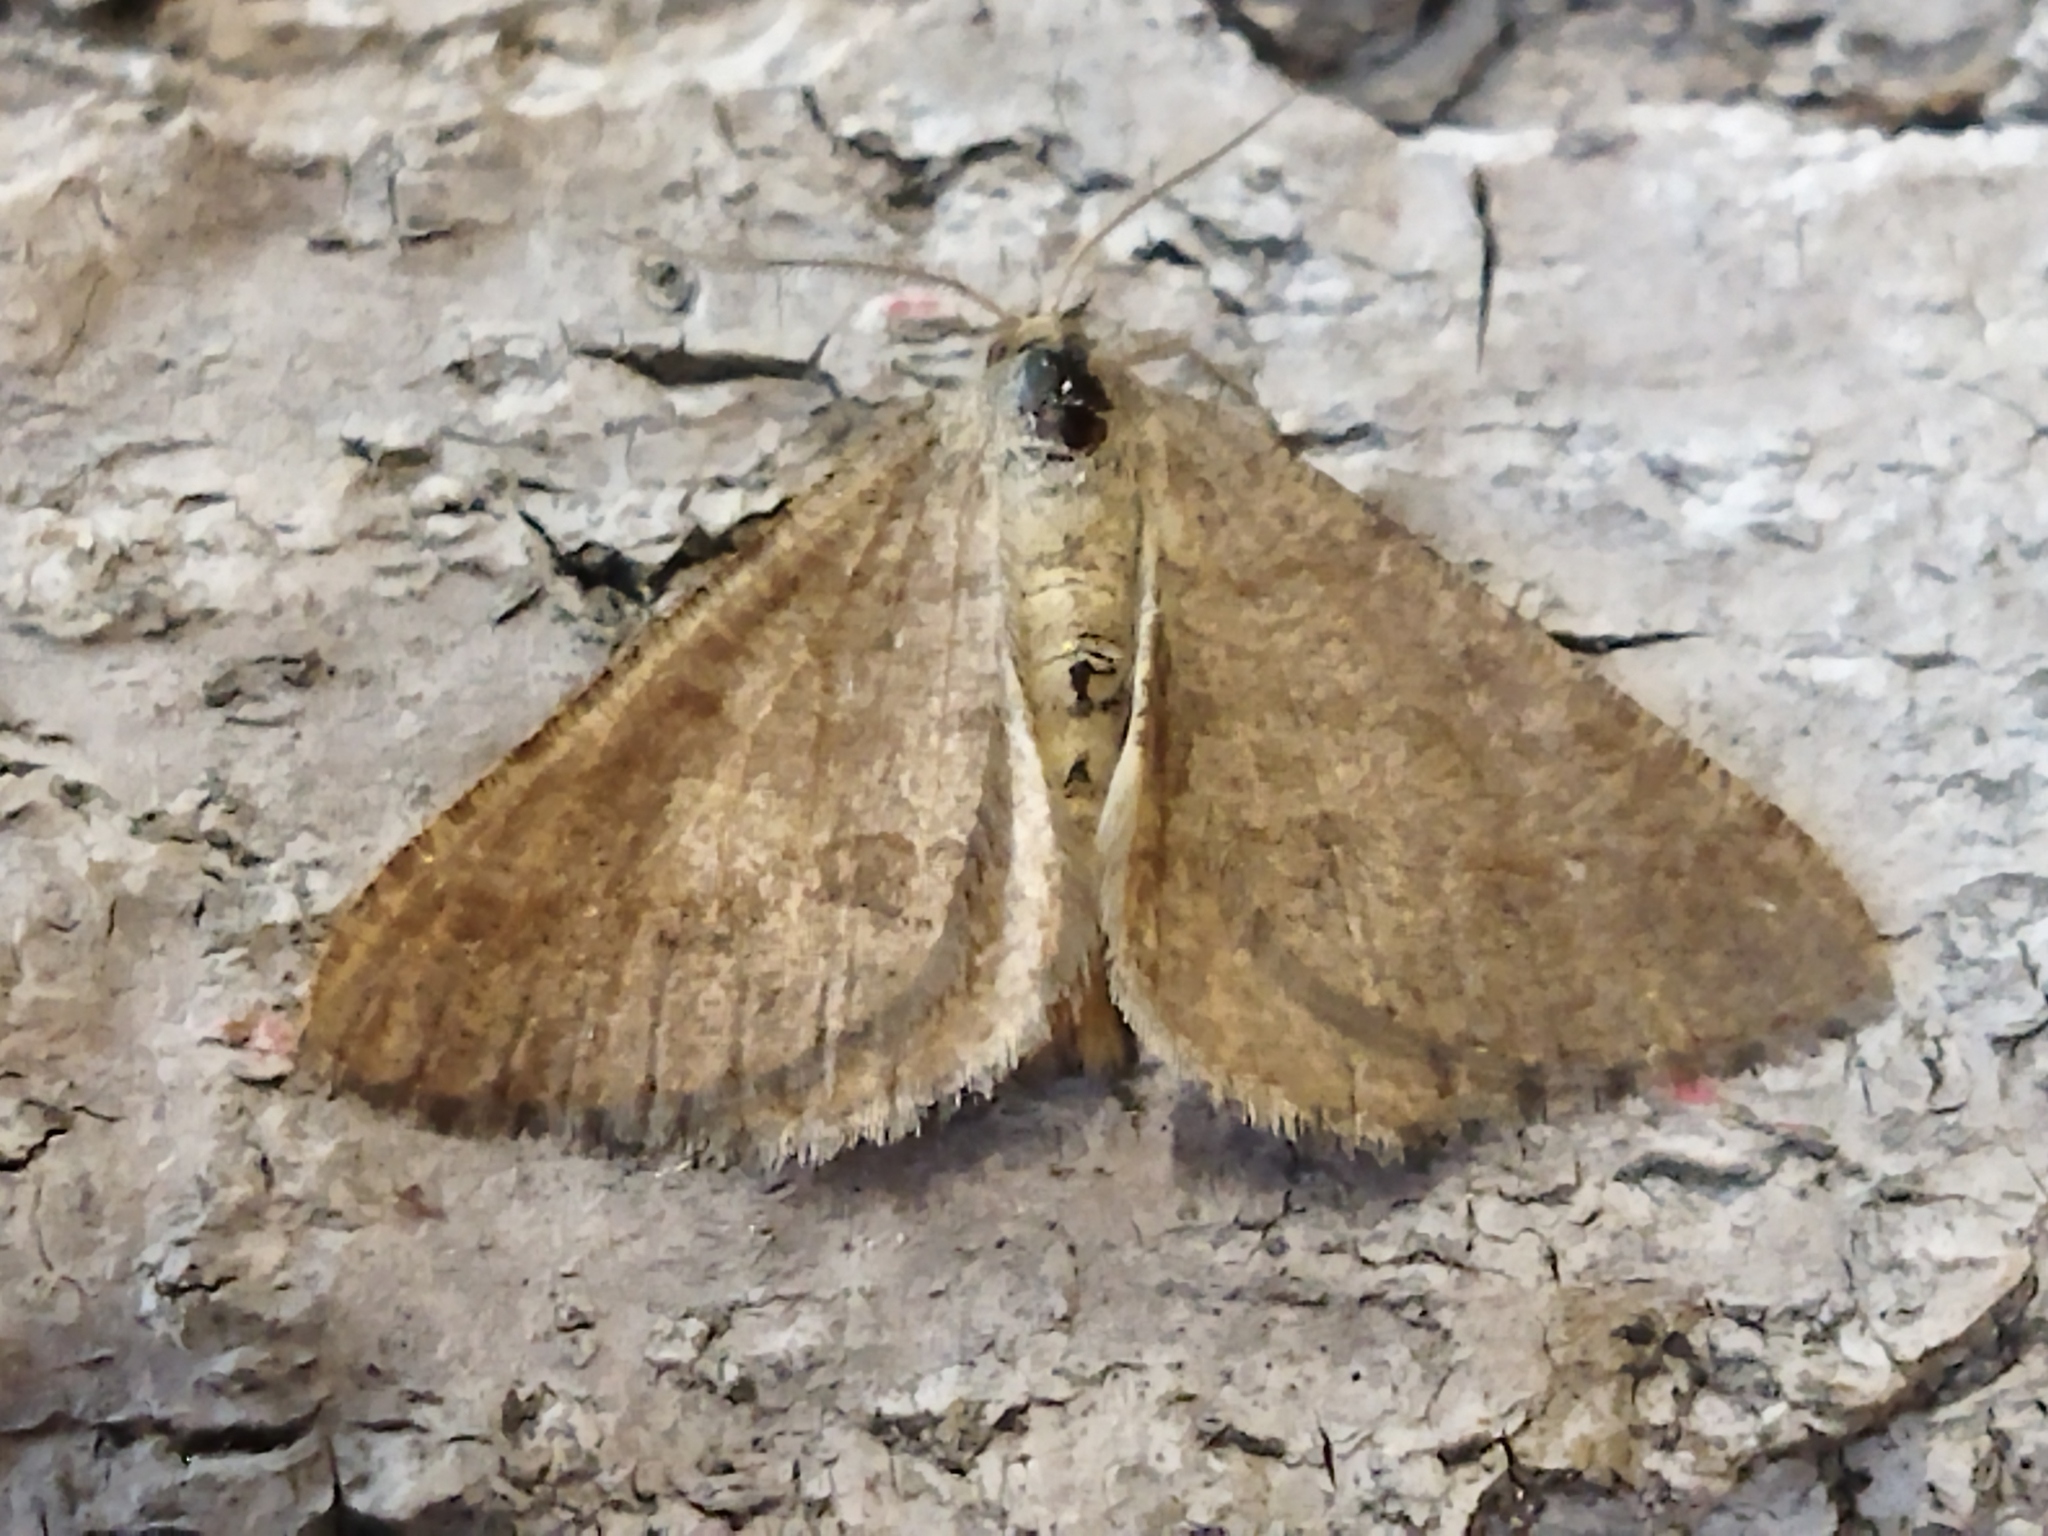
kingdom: Animalia
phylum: Arthropoda
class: Insecta
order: Lepidoptera
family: Geometridae
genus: Tephrina
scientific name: Tephrina murinaria
